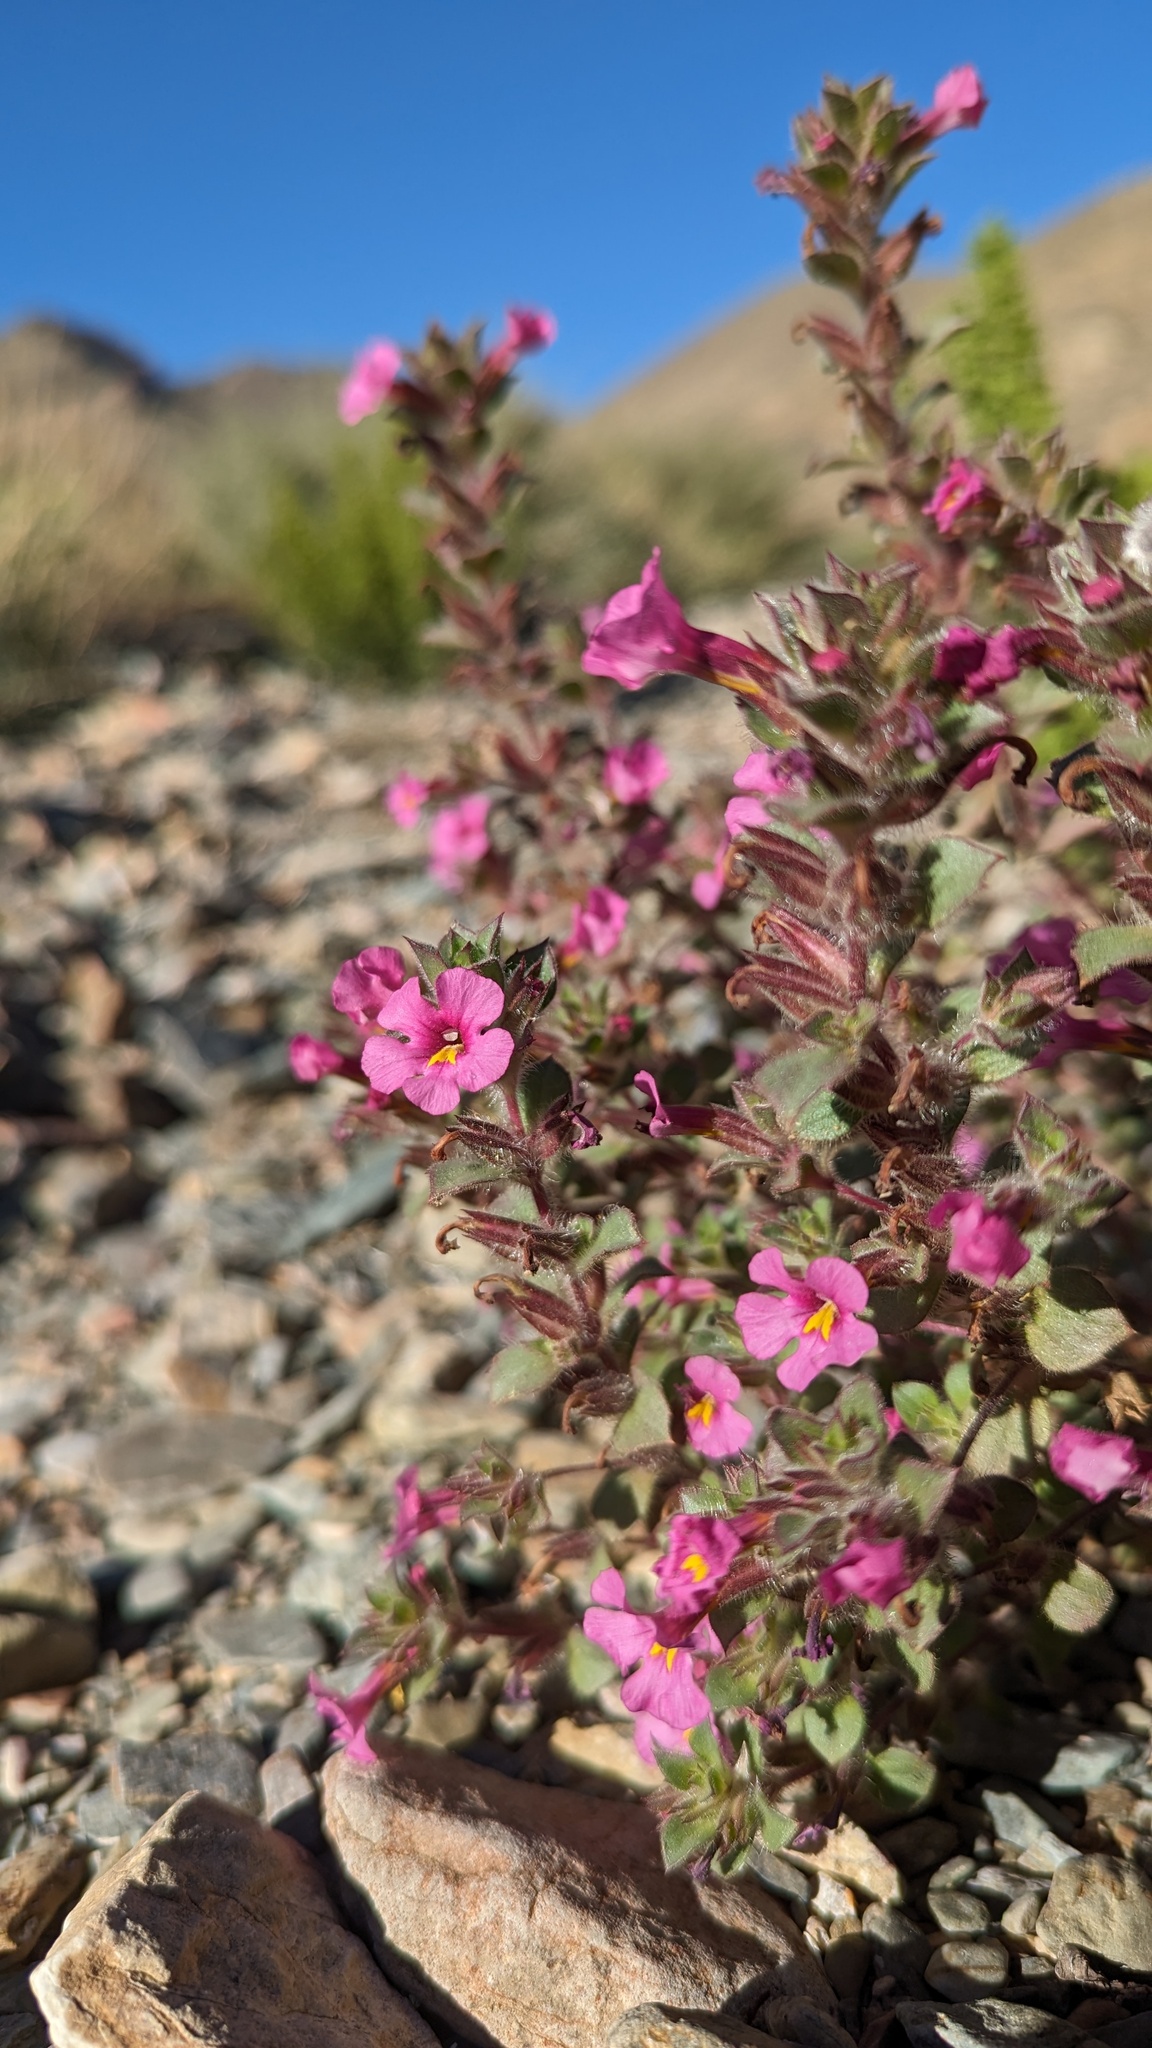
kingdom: Plantae
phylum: Tracheophyta
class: Magnoliopsida
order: Lamiales
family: Phrymaceae
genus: Diplacus
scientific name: Diplacus bigelovii
